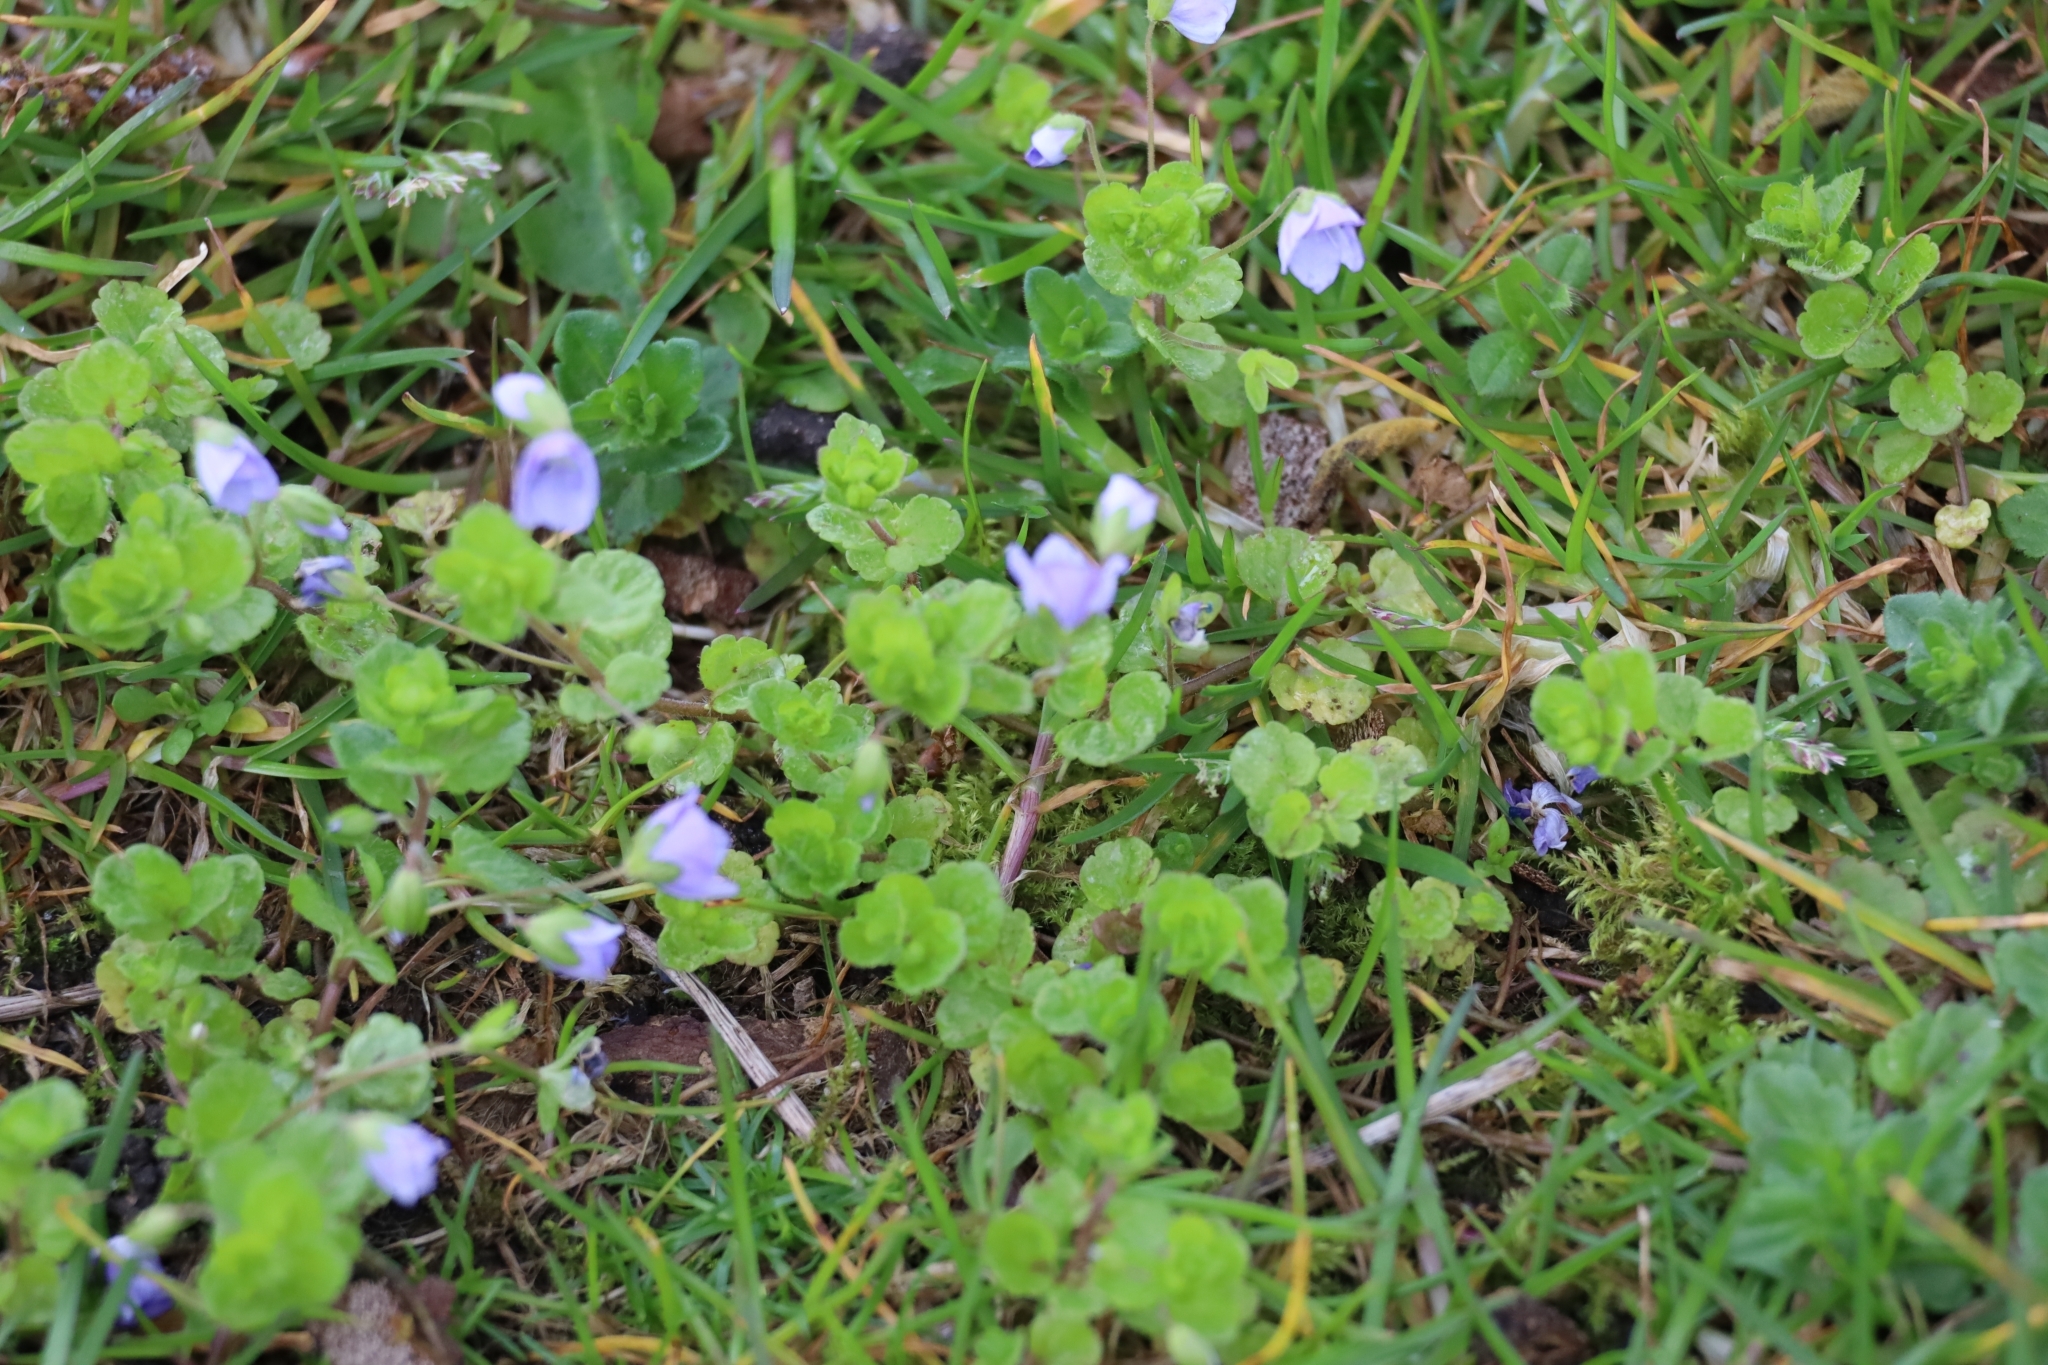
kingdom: Plantae
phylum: Tracheophyta
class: Magnoliopsida
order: Lamiales
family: Plantaginaceae
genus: Veronica
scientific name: Veronica filiformis
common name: Slender speedwell
